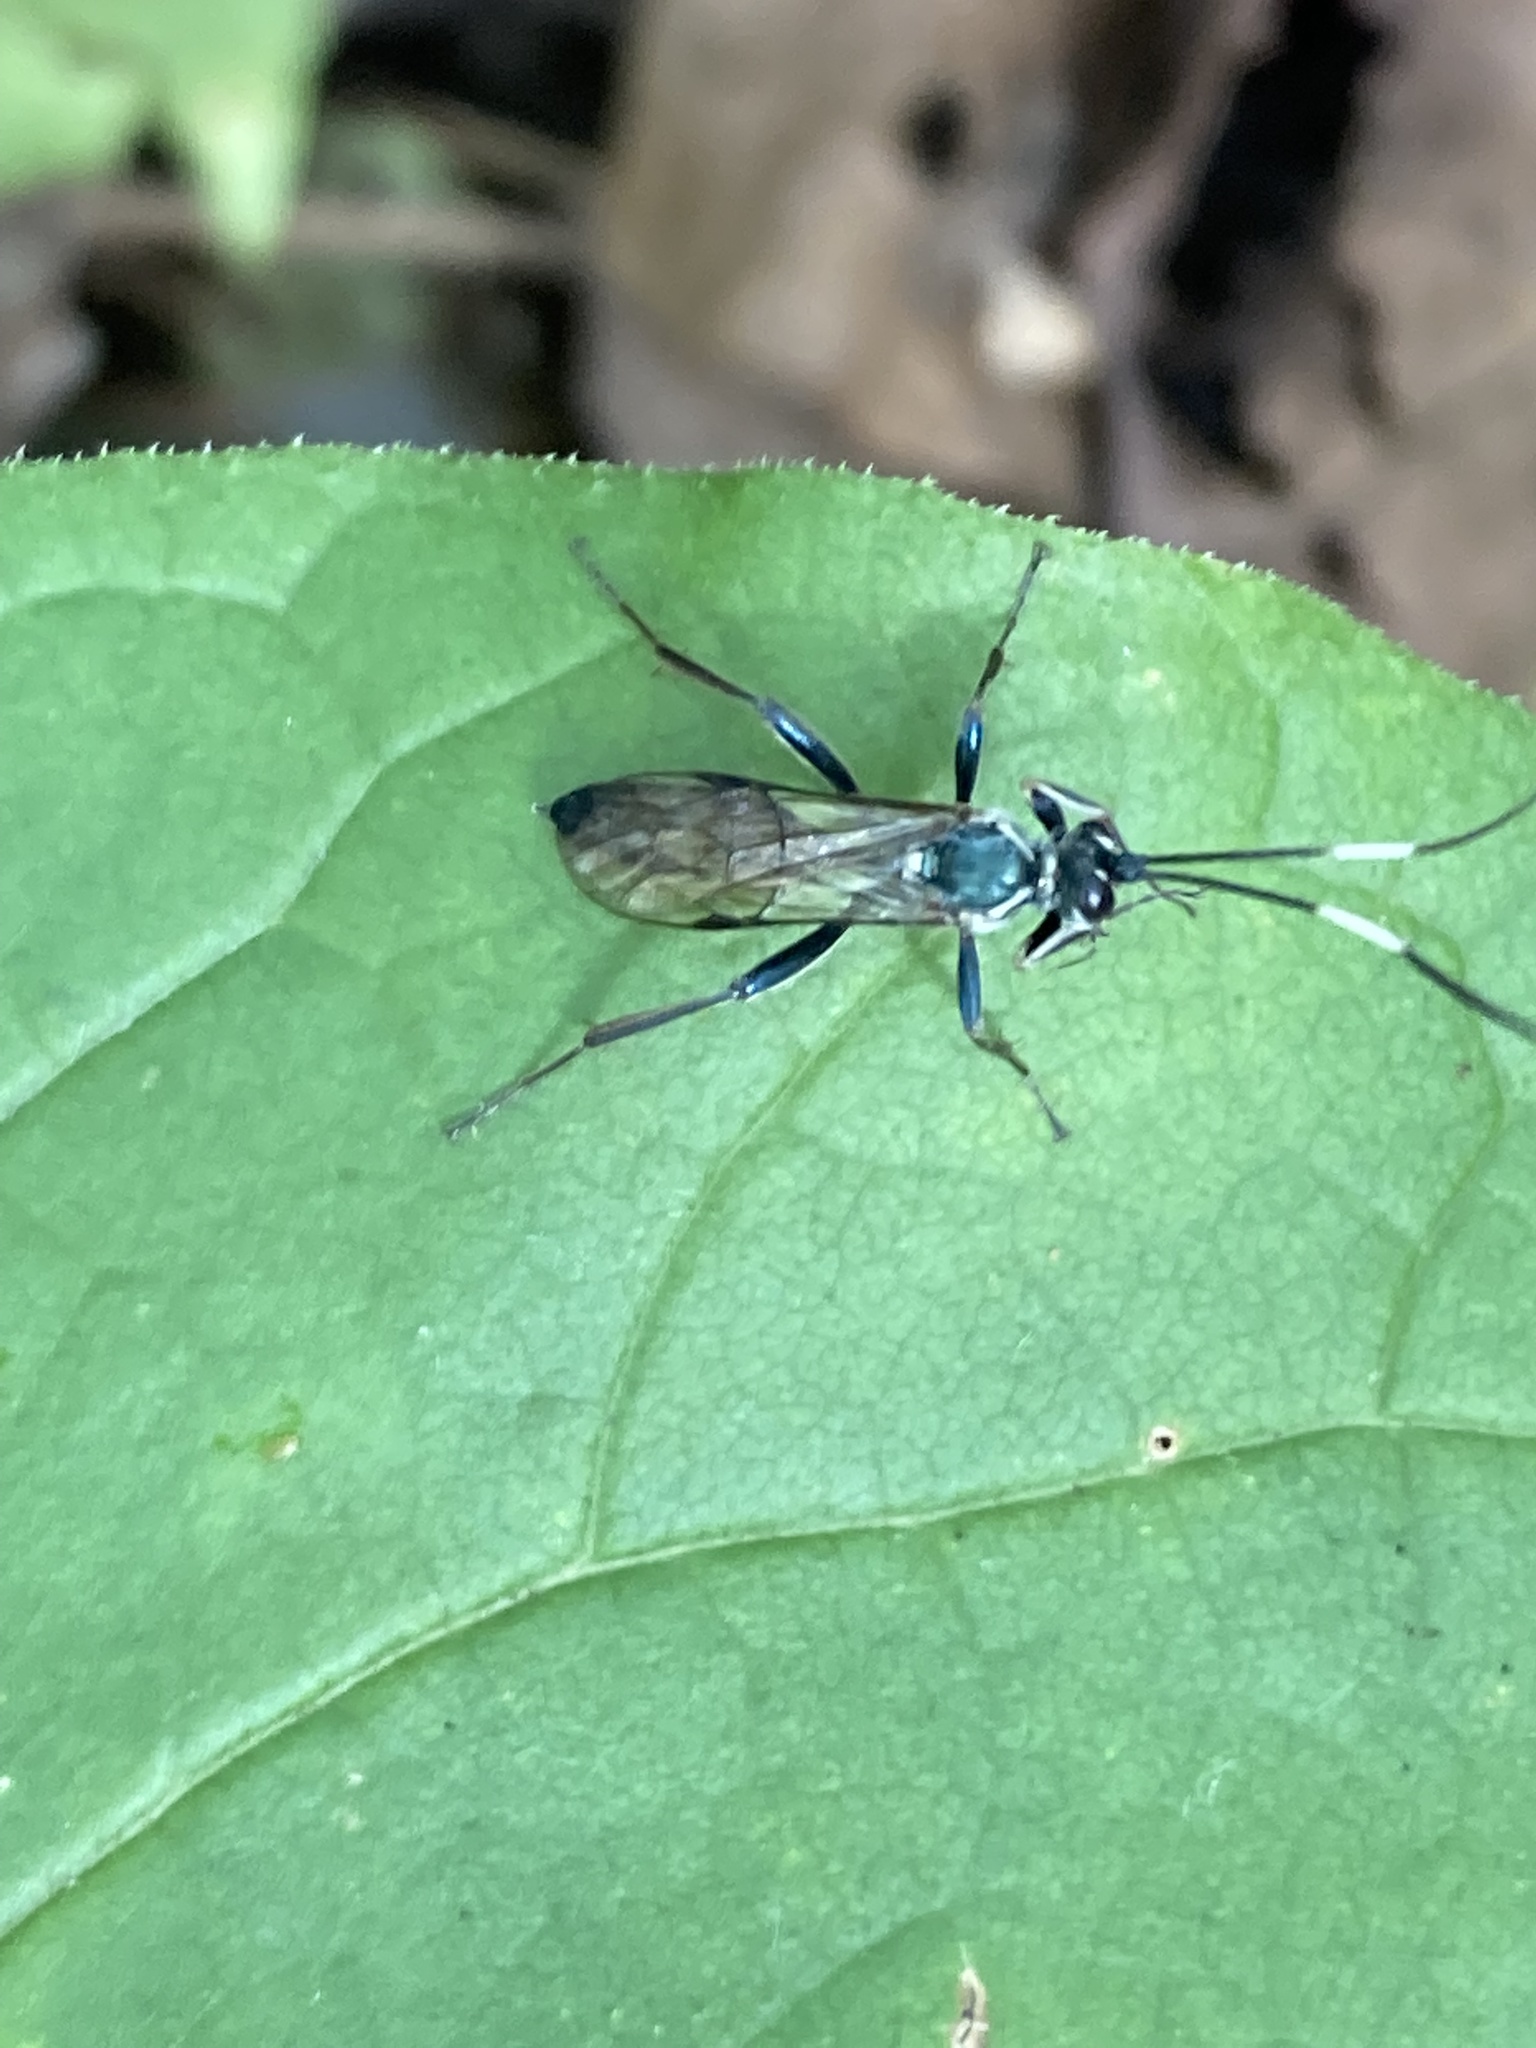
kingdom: Animalia
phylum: Arthropoda
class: Insecta
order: Hymenoptera
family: Ichneumonidae
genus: Platylabus
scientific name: Platylabus clarus
